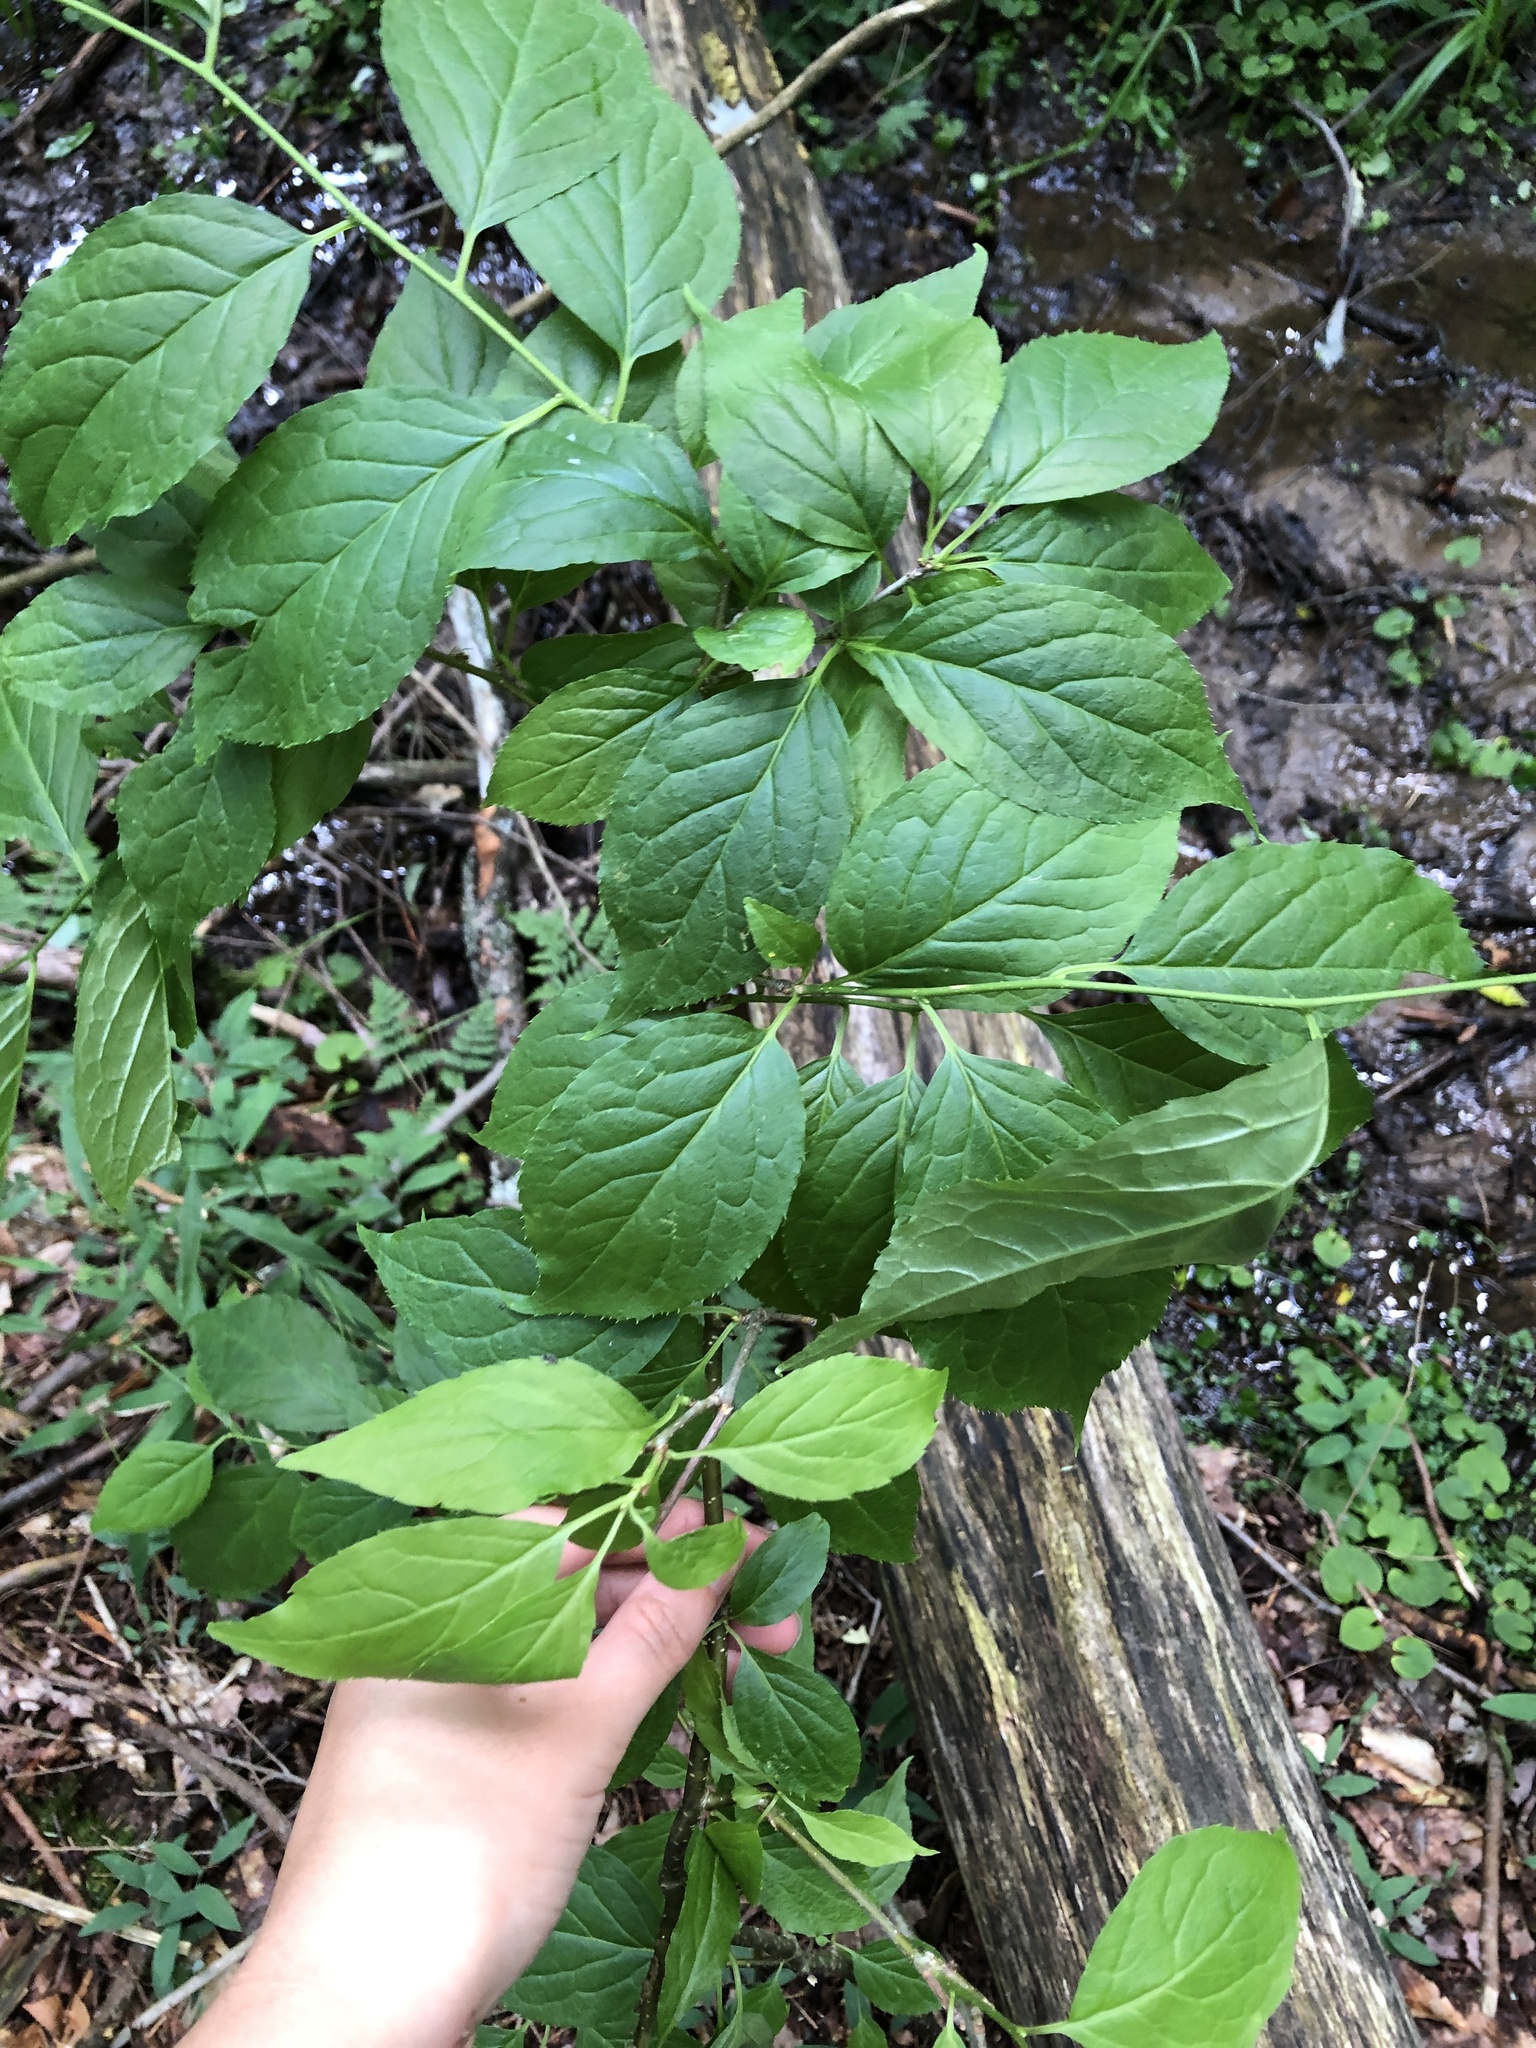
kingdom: Plantae
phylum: Tracheophyta
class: Magnoliopsida
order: Aquifoliales
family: Aquifoliaceae
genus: Ilex
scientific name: Ilex montana
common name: Mountain winterberry
